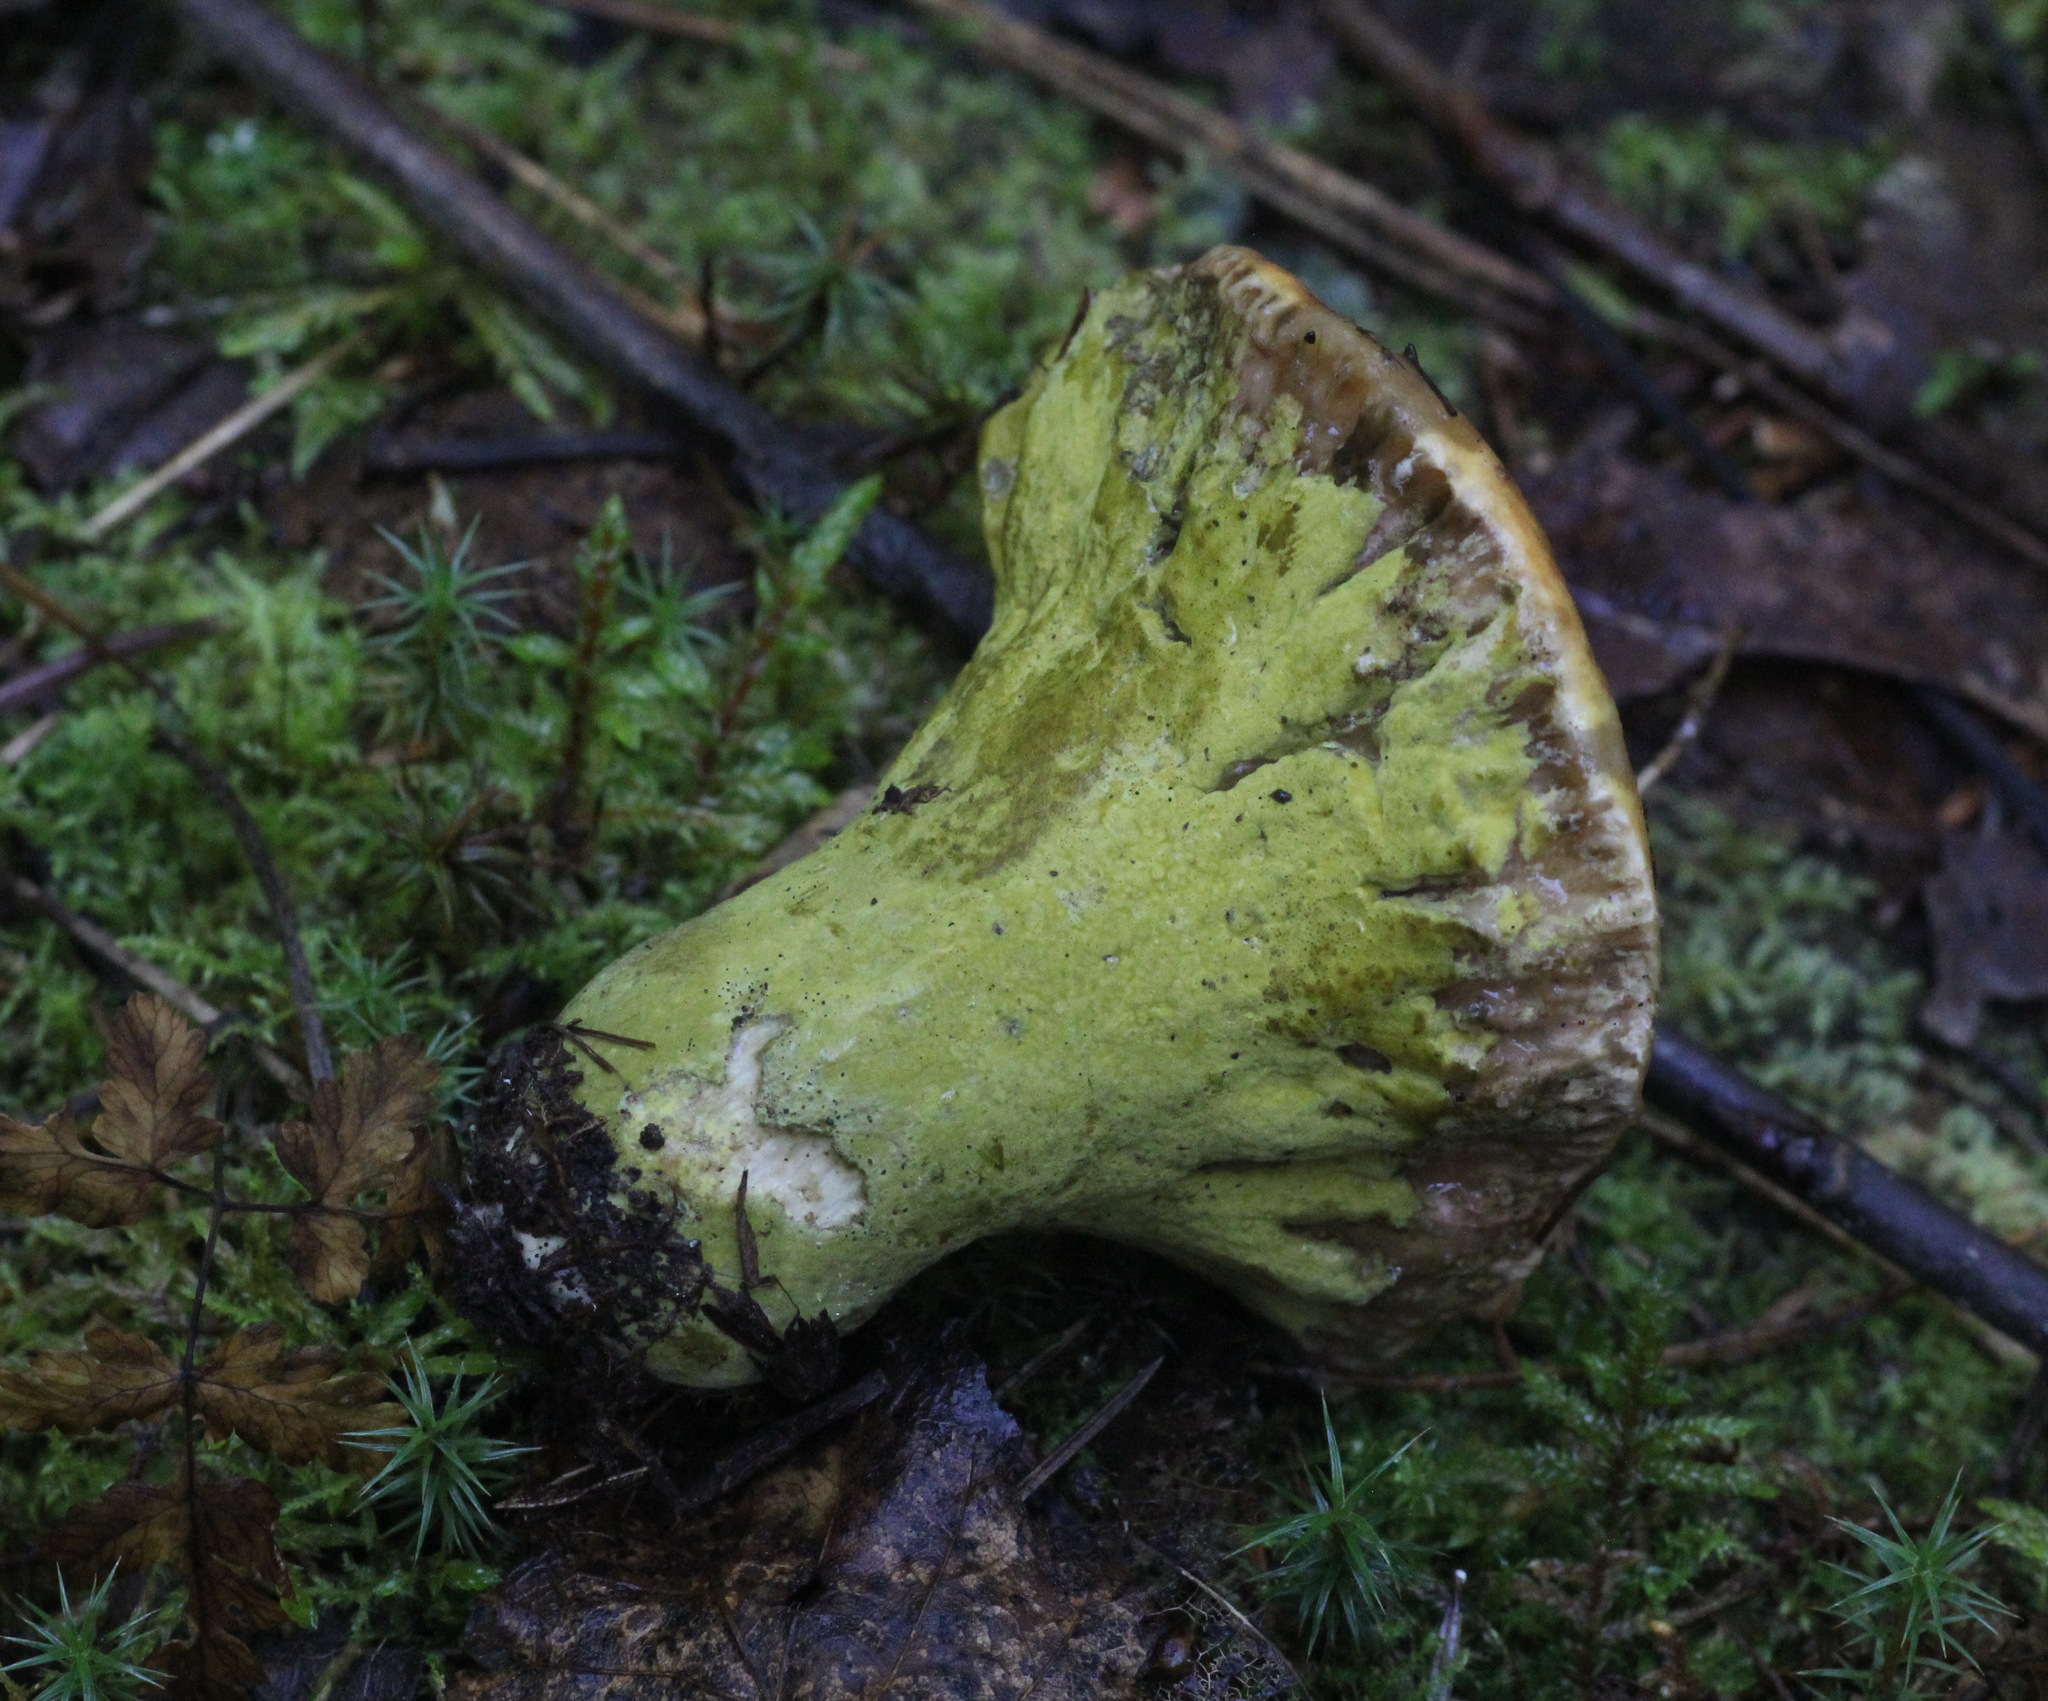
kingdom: Fungi
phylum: Ascomycota
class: Sordariomycetes
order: Hypocreales
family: Hypocreaceae
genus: Hypomyces
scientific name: Hypomyces luteovirens
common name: Yellow-green russula mold
